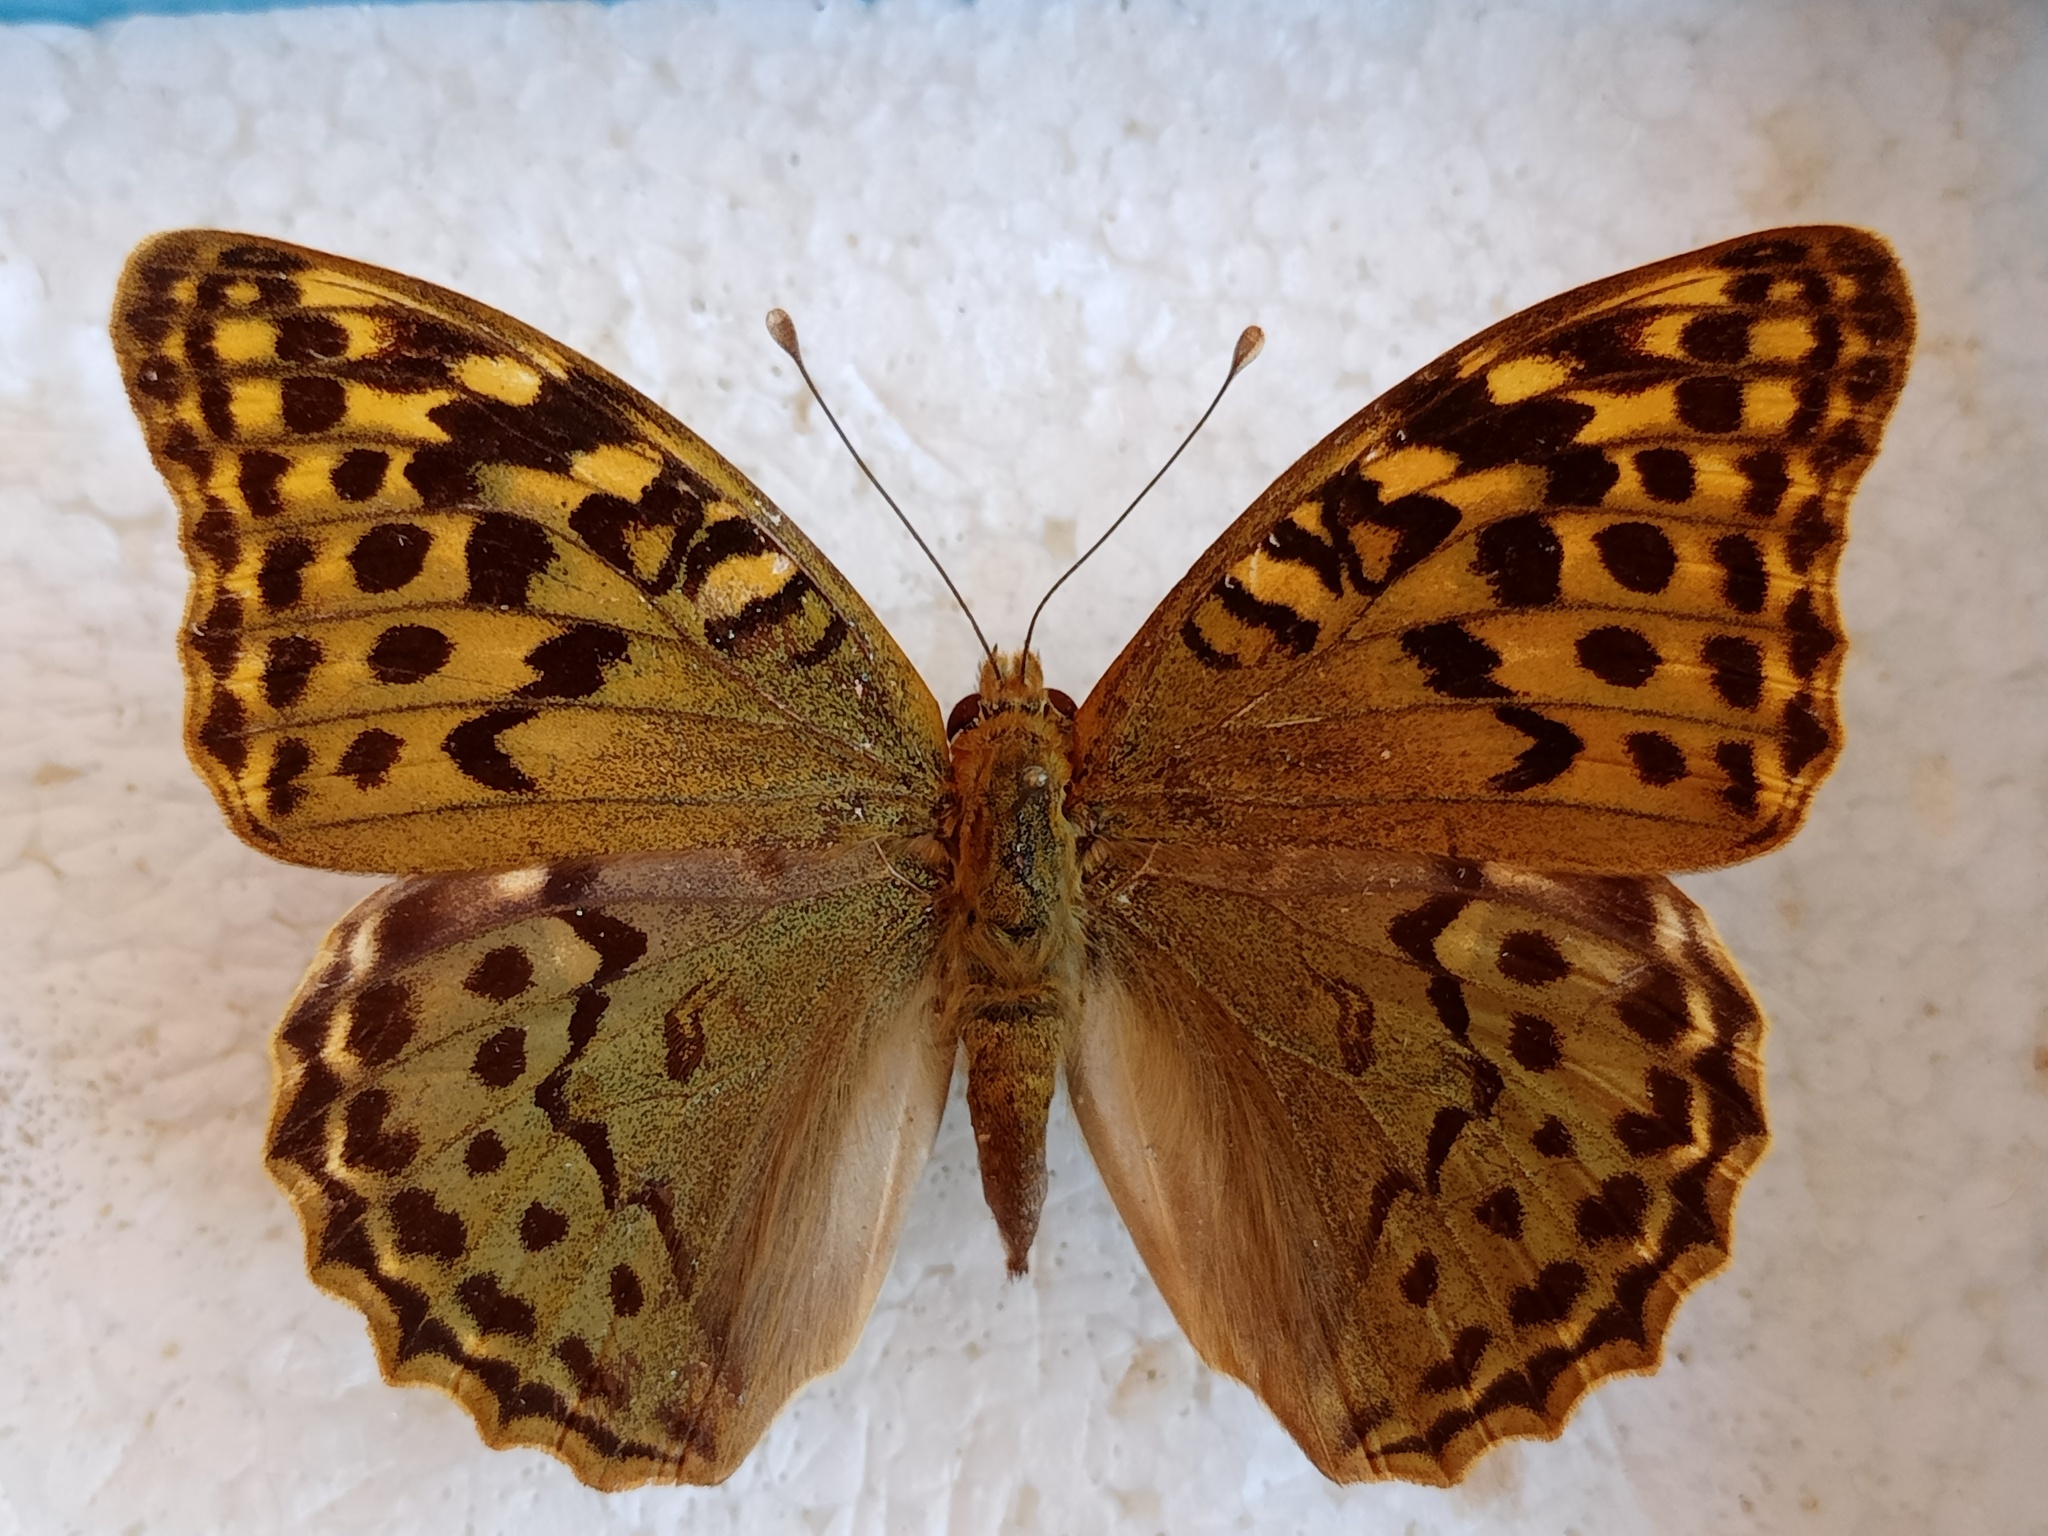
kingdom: Animalia
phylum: Arthropoda
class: Insecta
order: Lepidoptera
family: Nymphalidae
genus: Damora
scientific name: Damora pandora
